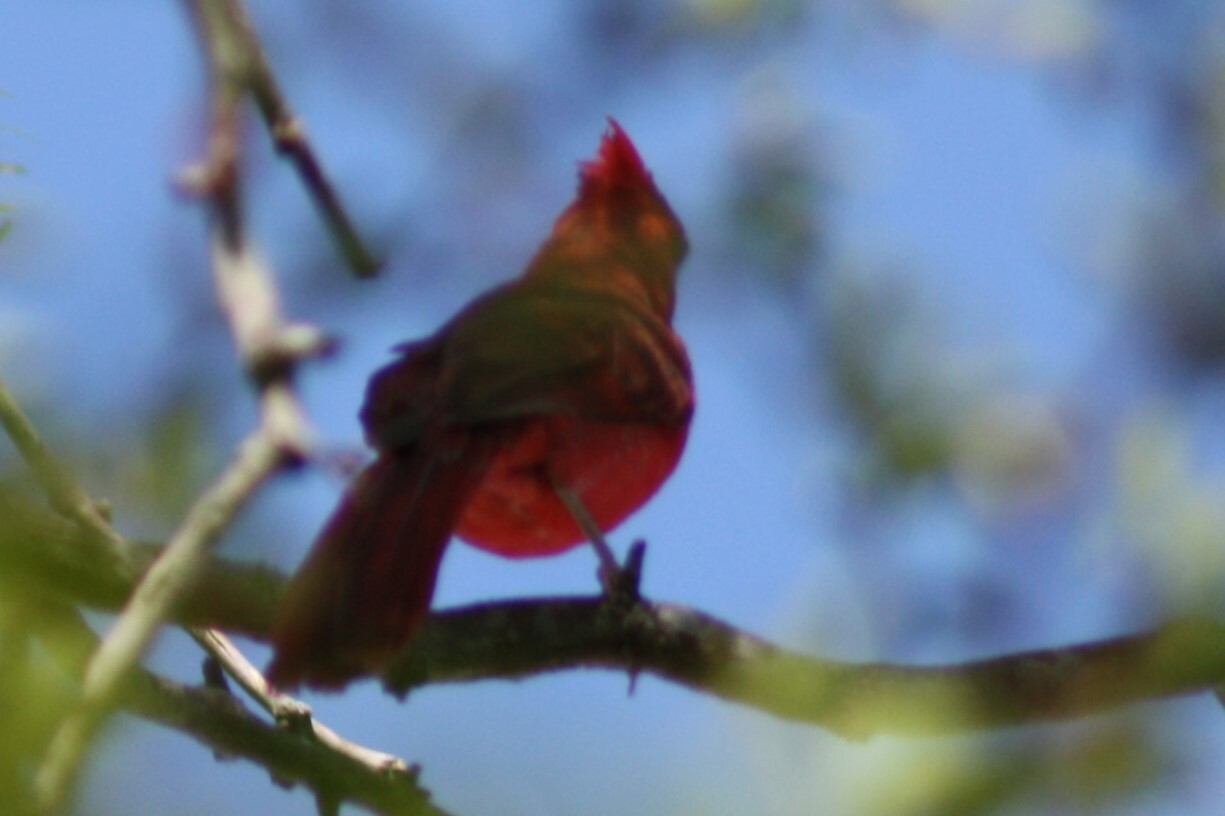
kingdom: Animalia
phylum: Chordata
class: Aves
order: Passeriformes
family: Cardinalidae
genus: Cardinalis
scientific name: Cardinalis cardinalis
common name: Northern cardinal
